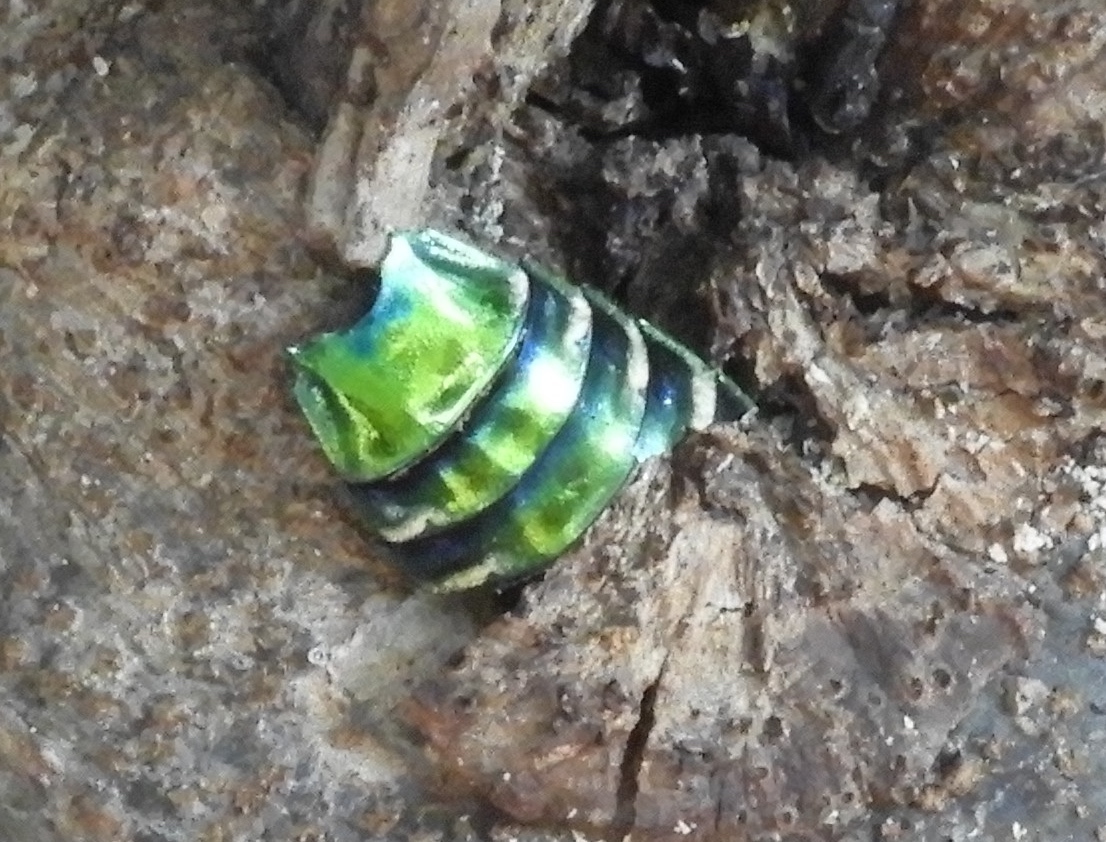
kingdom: Animalia
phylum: Arthropoda
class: Insecta
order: Coleoptera
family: Buprestidae
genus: Colobogaster
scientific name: Colobogaster
